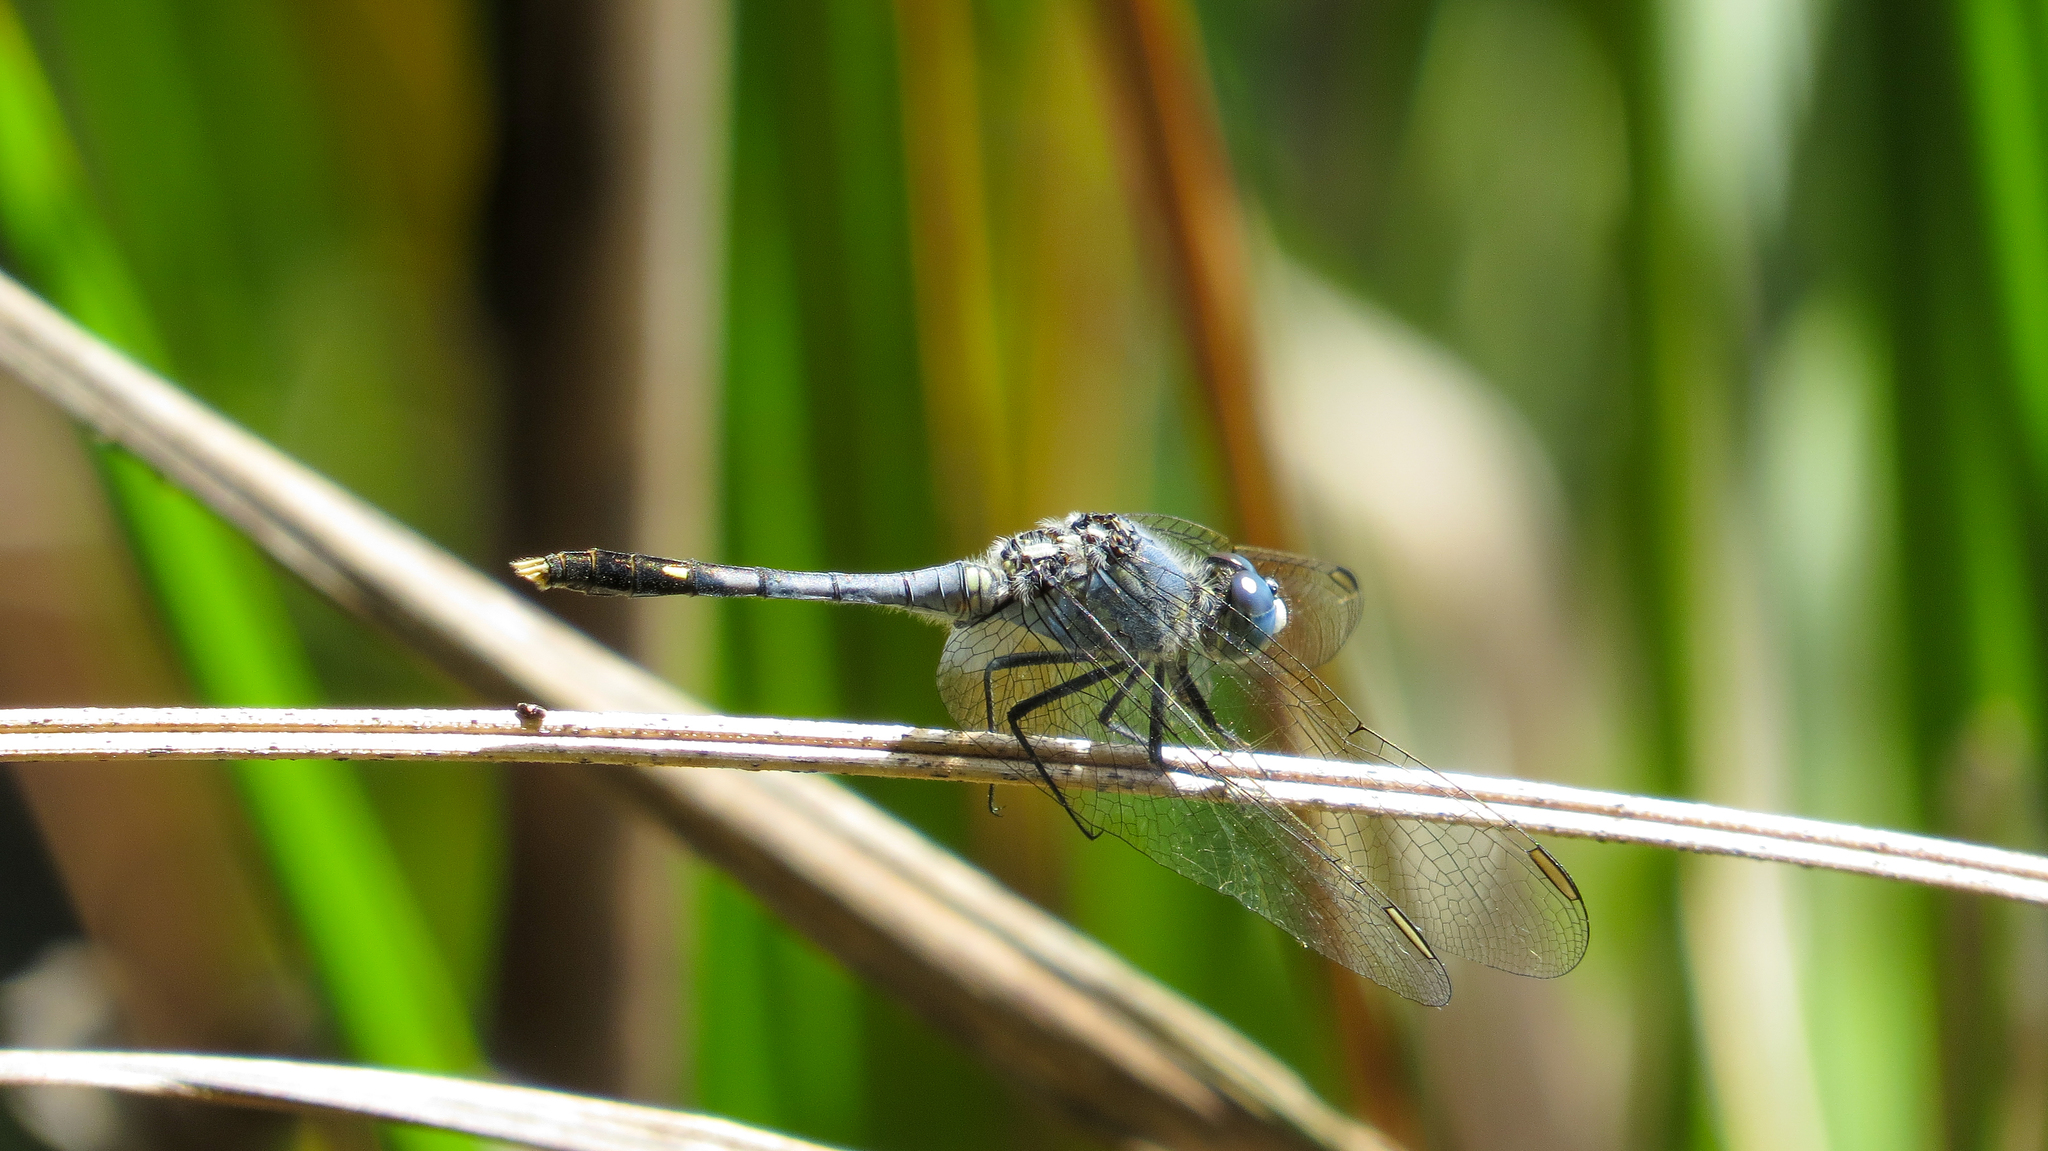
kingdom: Animalia
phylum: Arthropoda
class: Insecta
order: Odonata
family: Libellulidae
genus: Diplacodes
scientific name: Diplacodes trivialis
